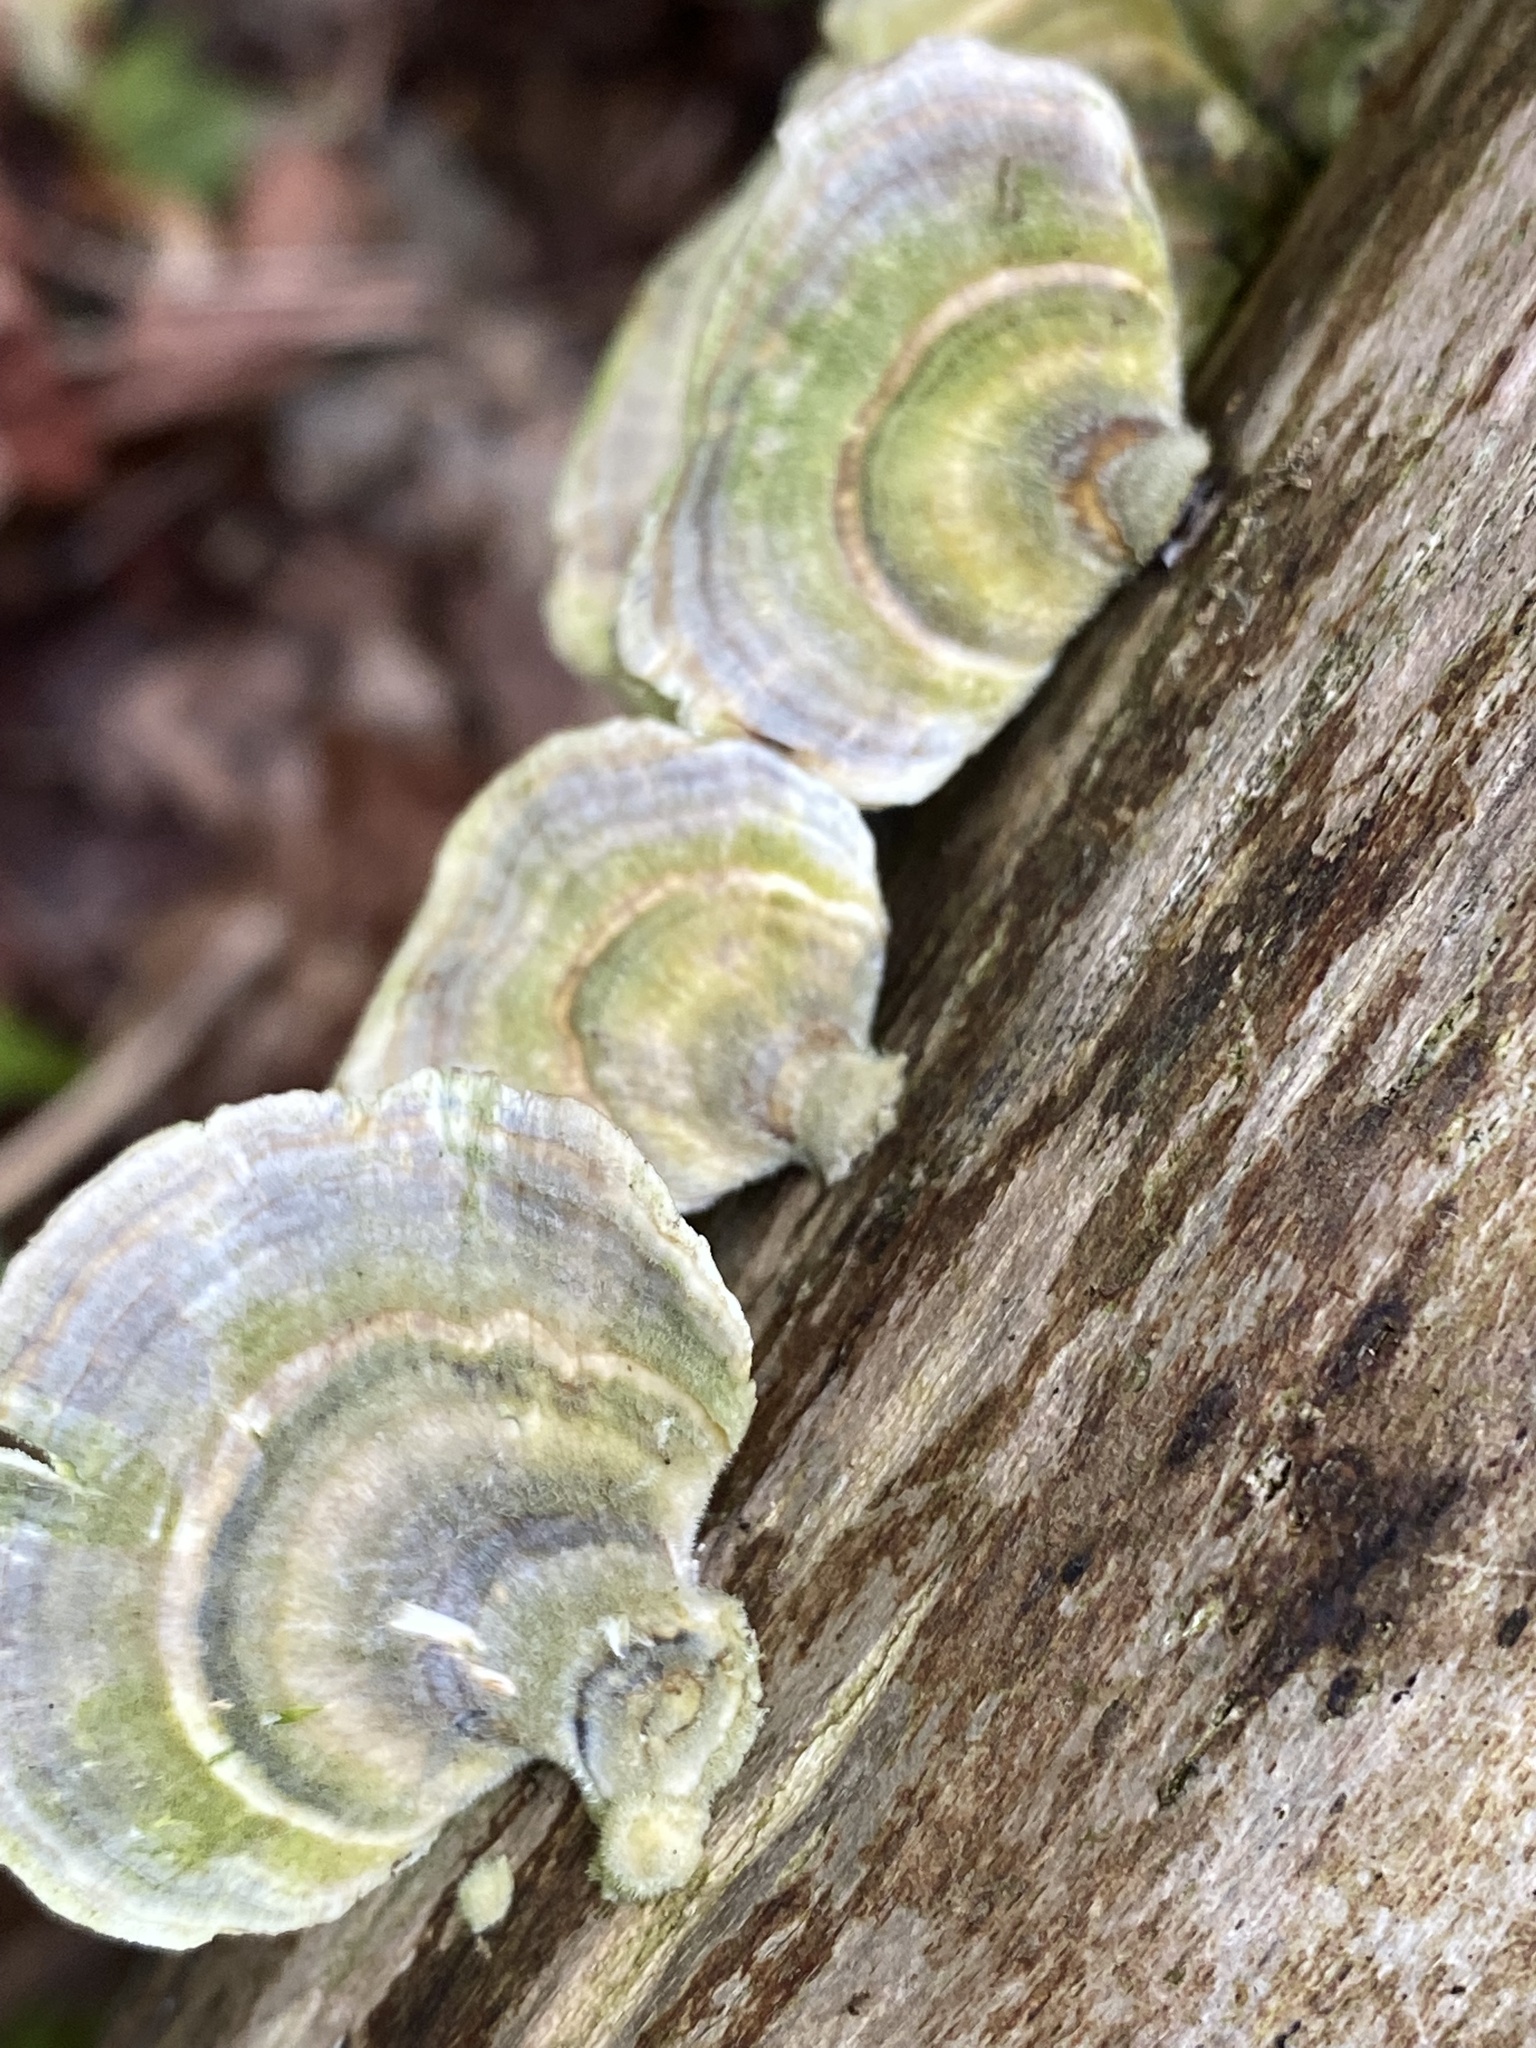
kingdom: Fungi
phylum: Basidiomycota
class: Agaricomycetes
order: Polyporales
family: Polyporaceae
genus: Trametes
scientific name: Trametes versicolor
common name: Turkeytail
